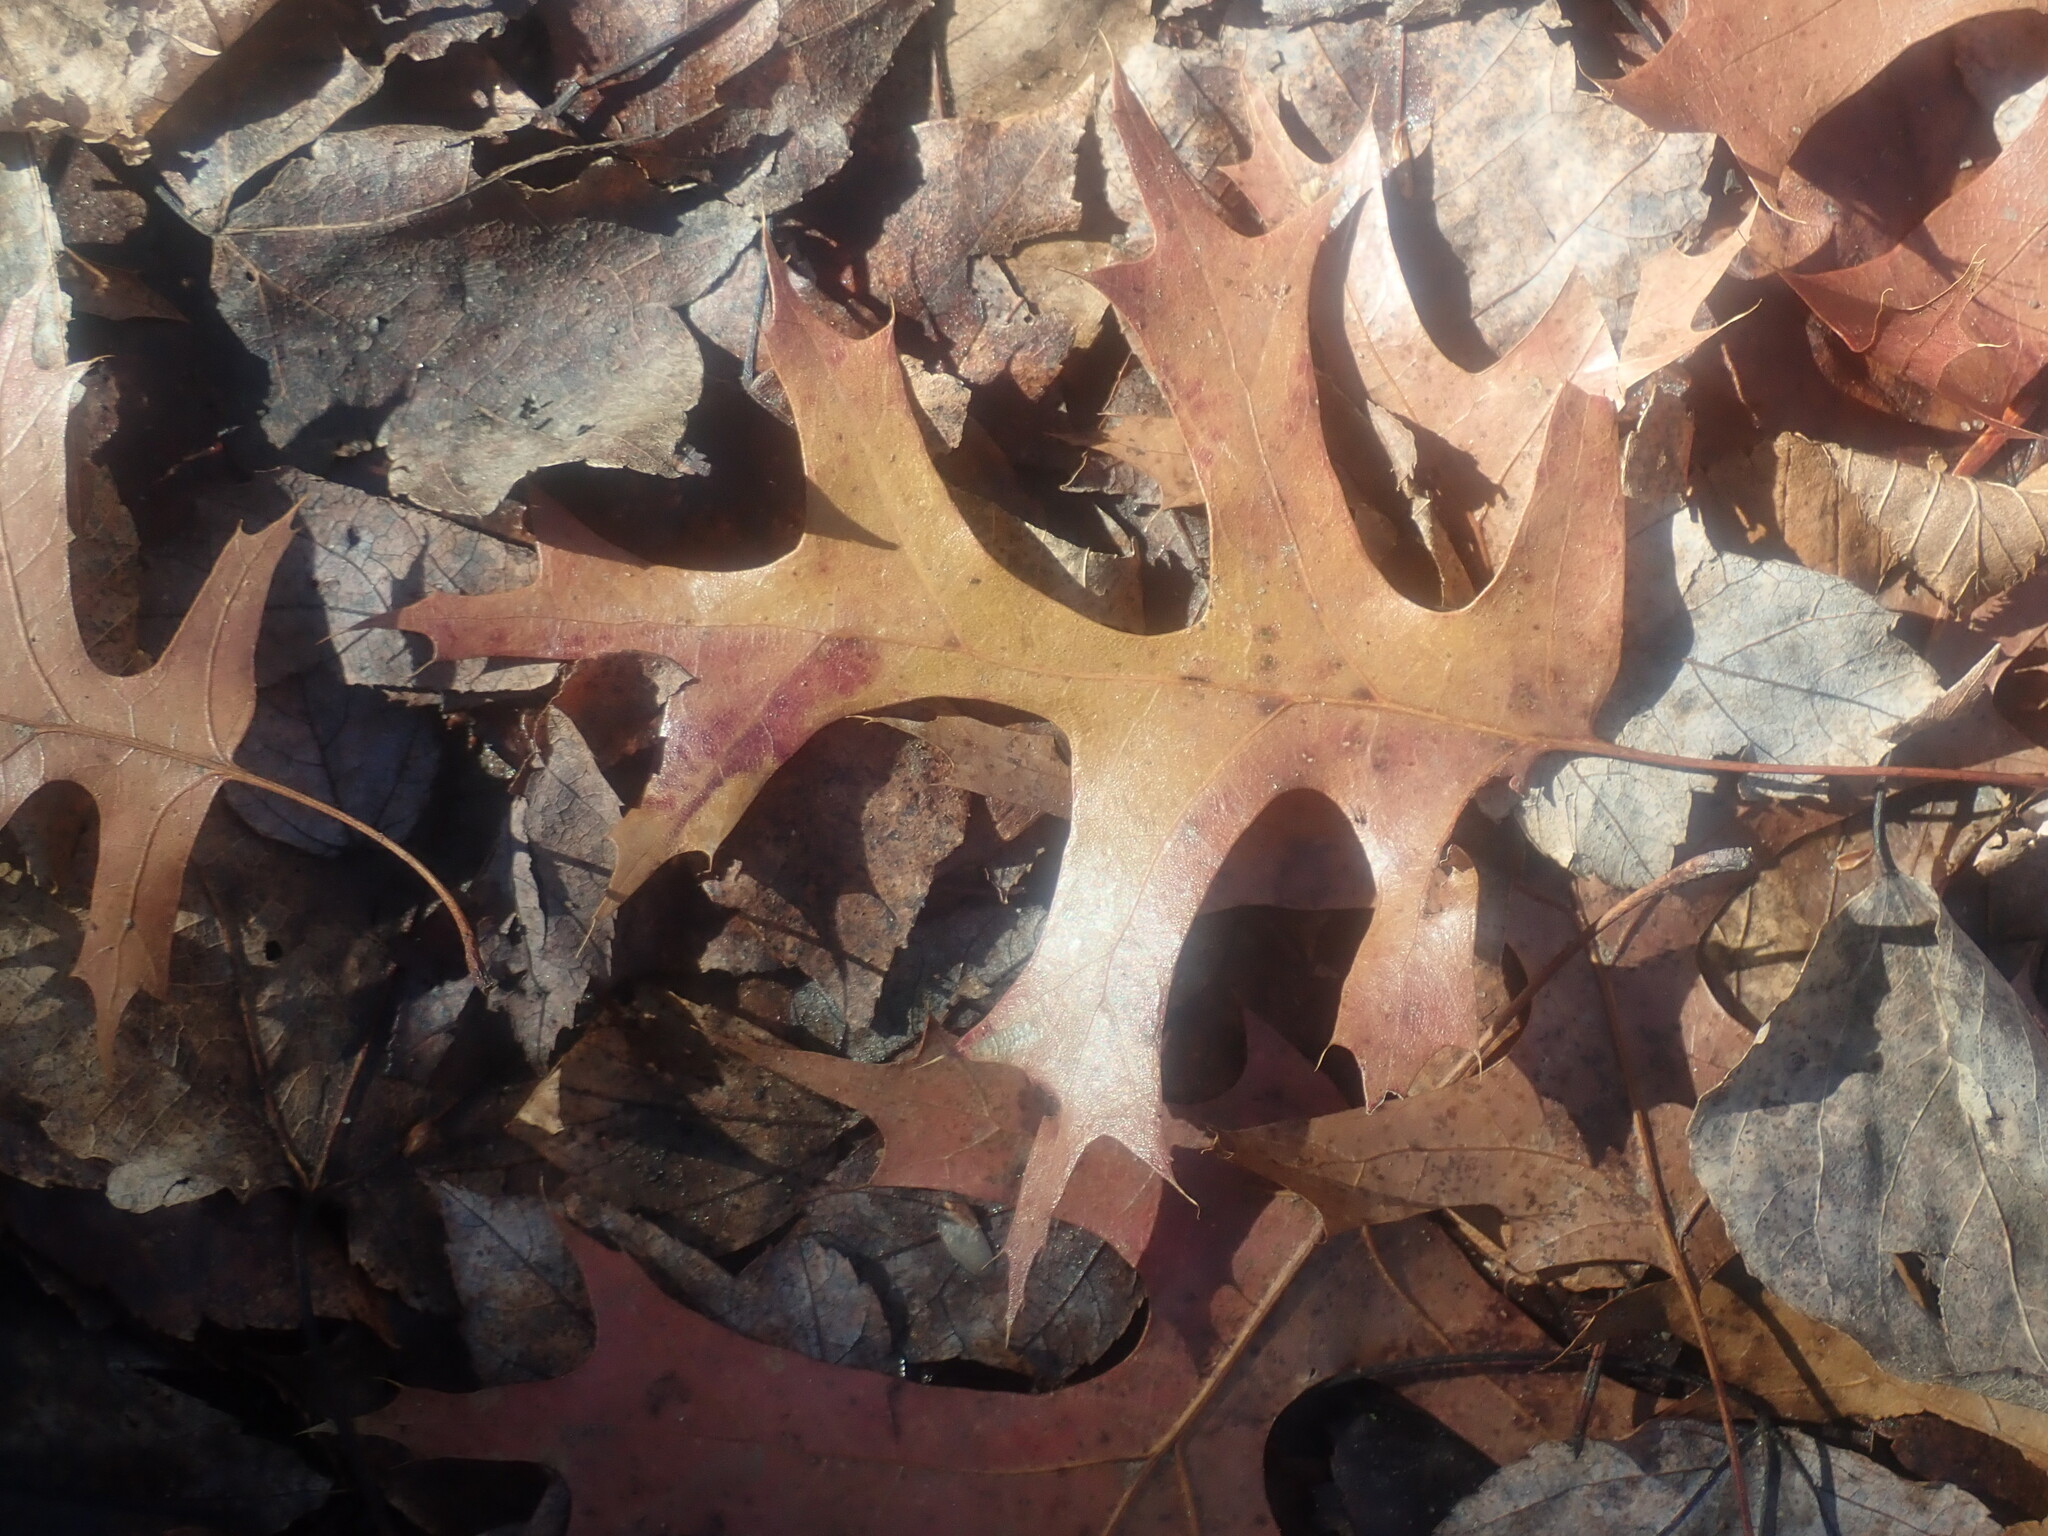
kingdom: Plantae
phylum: Tracheophyta
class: Magnoliopsida
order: Fagales
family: Fagaceae
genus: Quercus
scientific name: Quercus coccinea
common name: Scarlet oak
